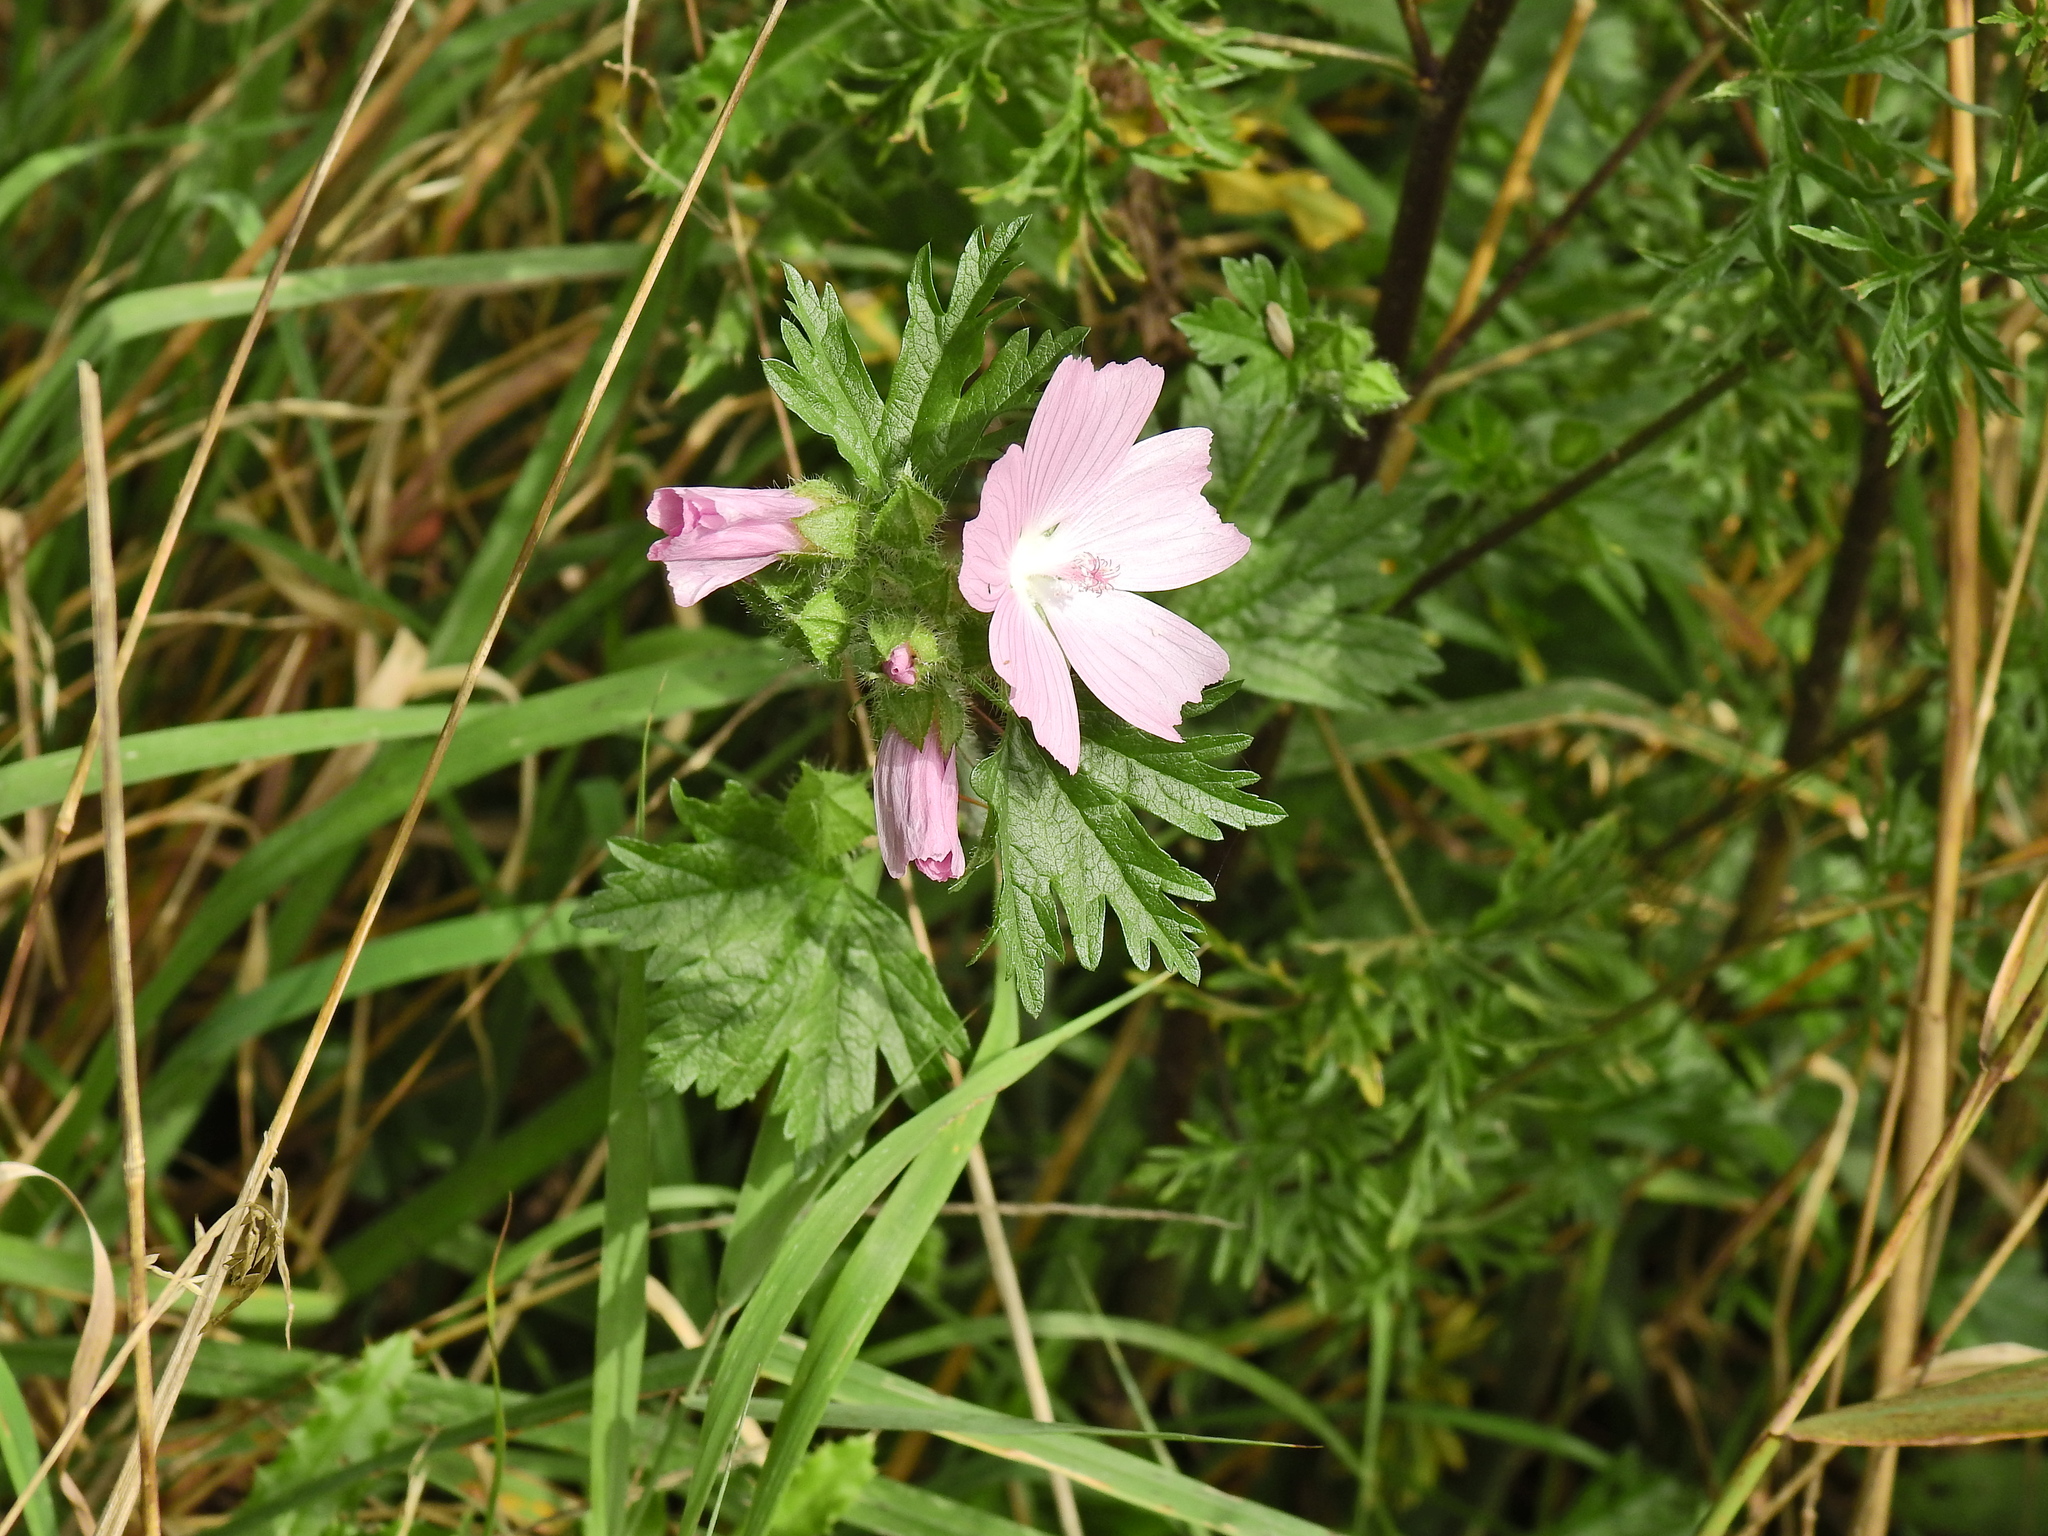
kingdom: Plantae
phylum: Tracheophyta
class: Magnoliopsida
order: Malvales
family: Malvaceae
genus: Malva
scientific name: Malva moschata
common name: Musk mallow
